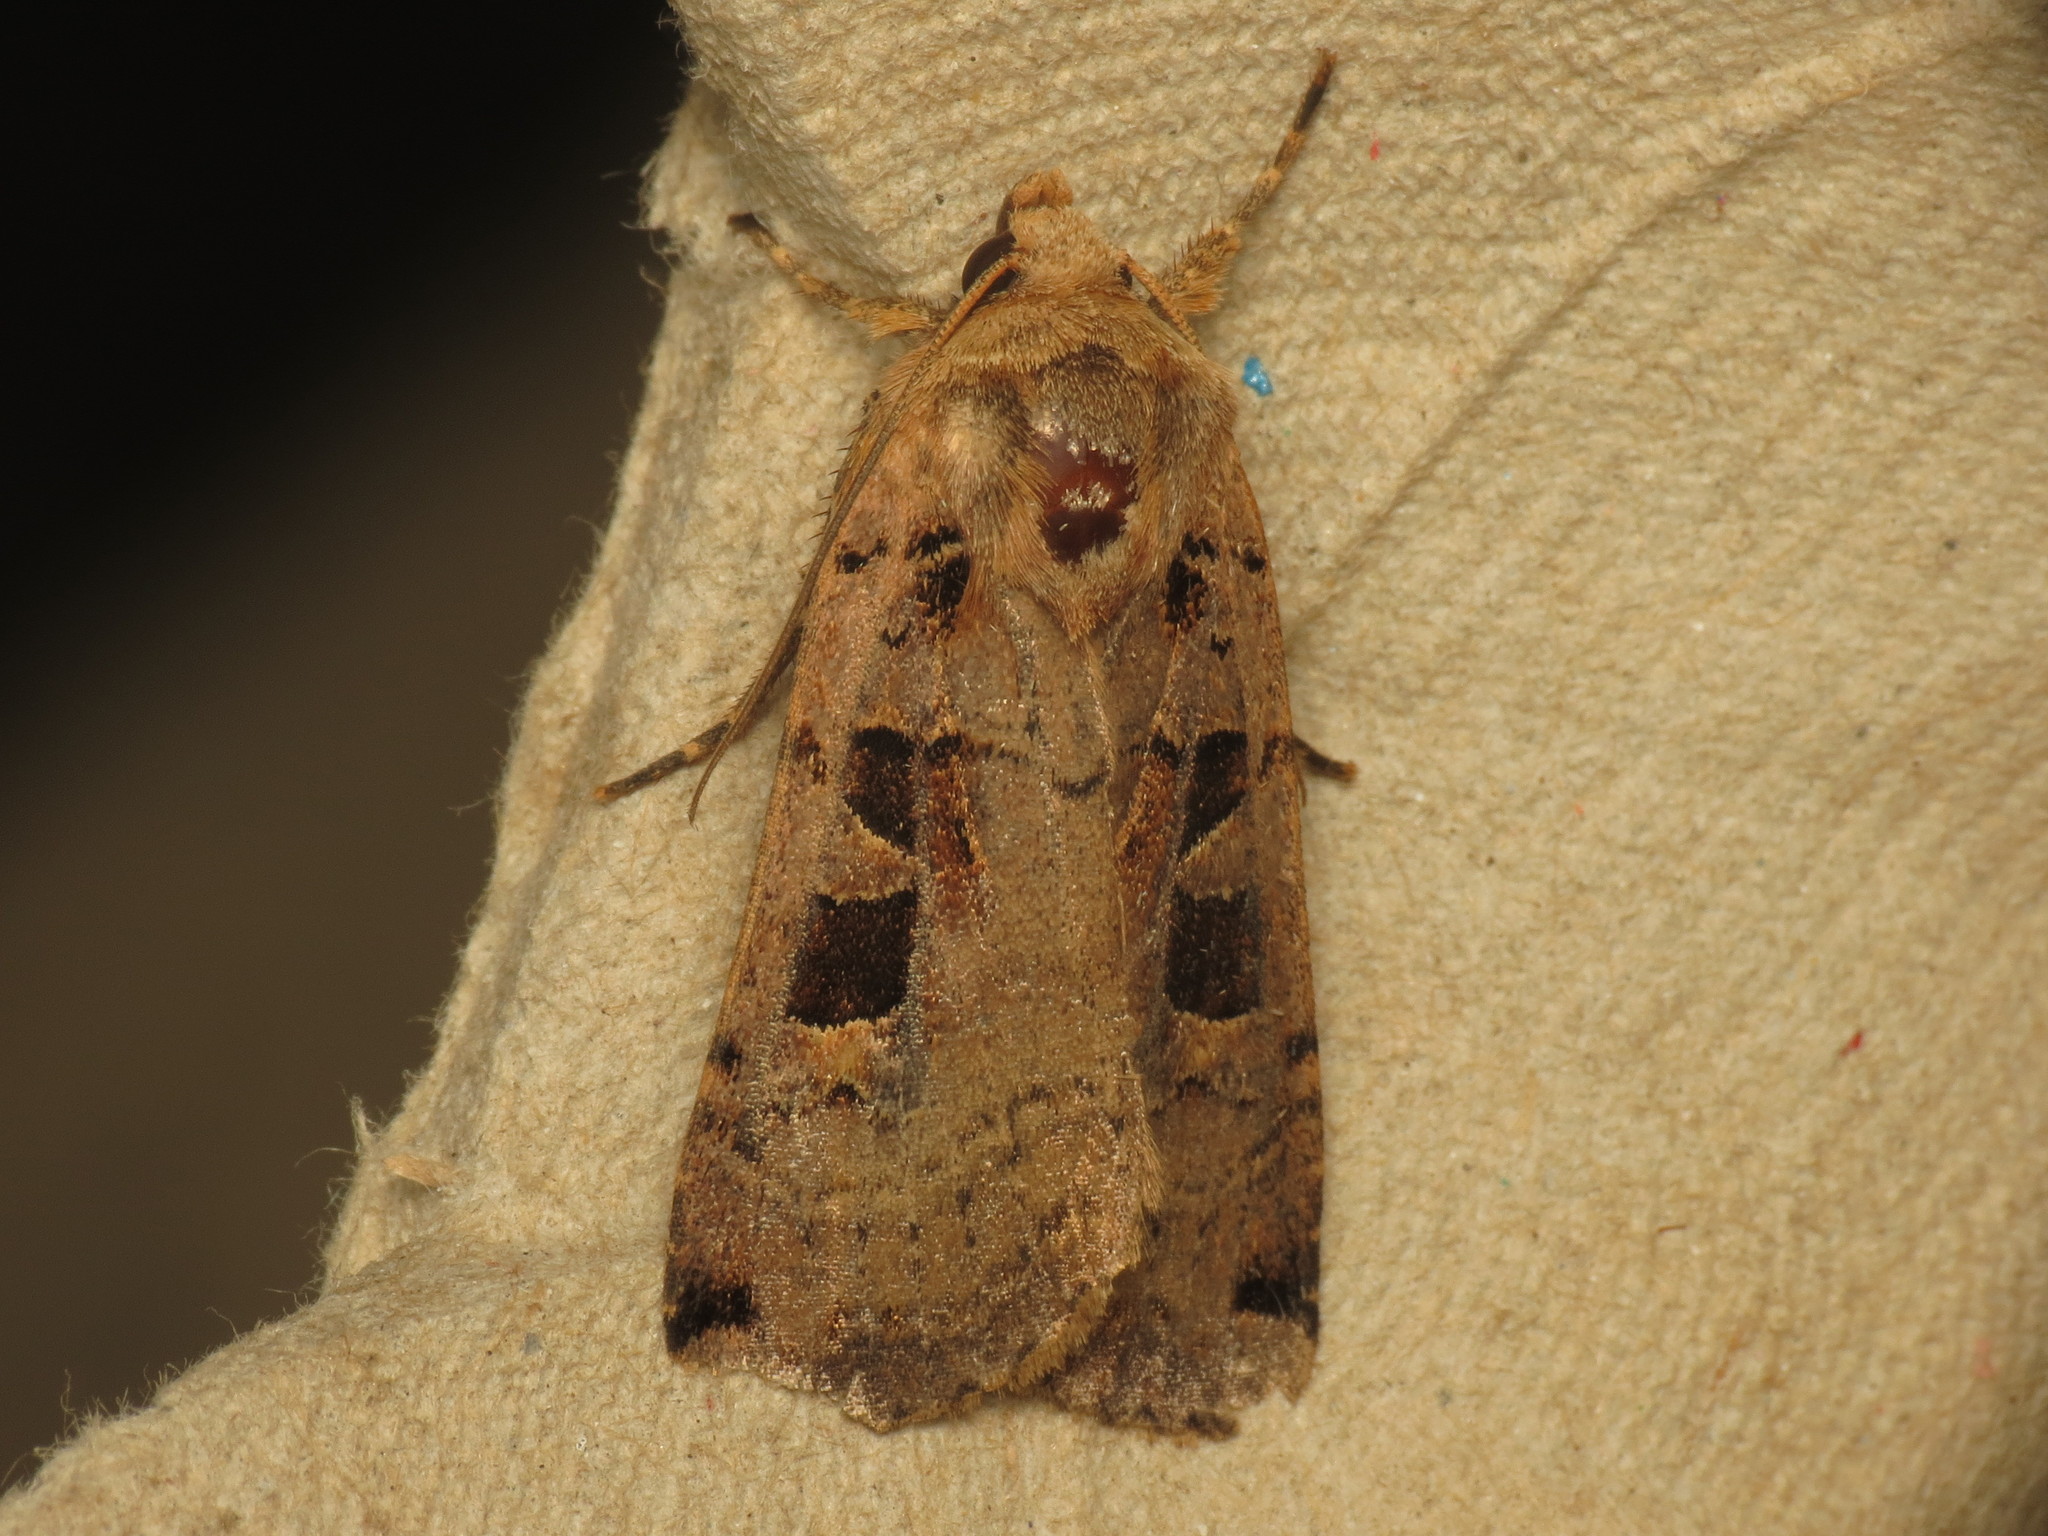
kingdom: Animalia
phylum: Arthropoda
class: Insecta
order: Lepidoptera
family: Noctuidae
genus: Xestia
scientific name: Xestia triangulum
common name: Double square-spot
